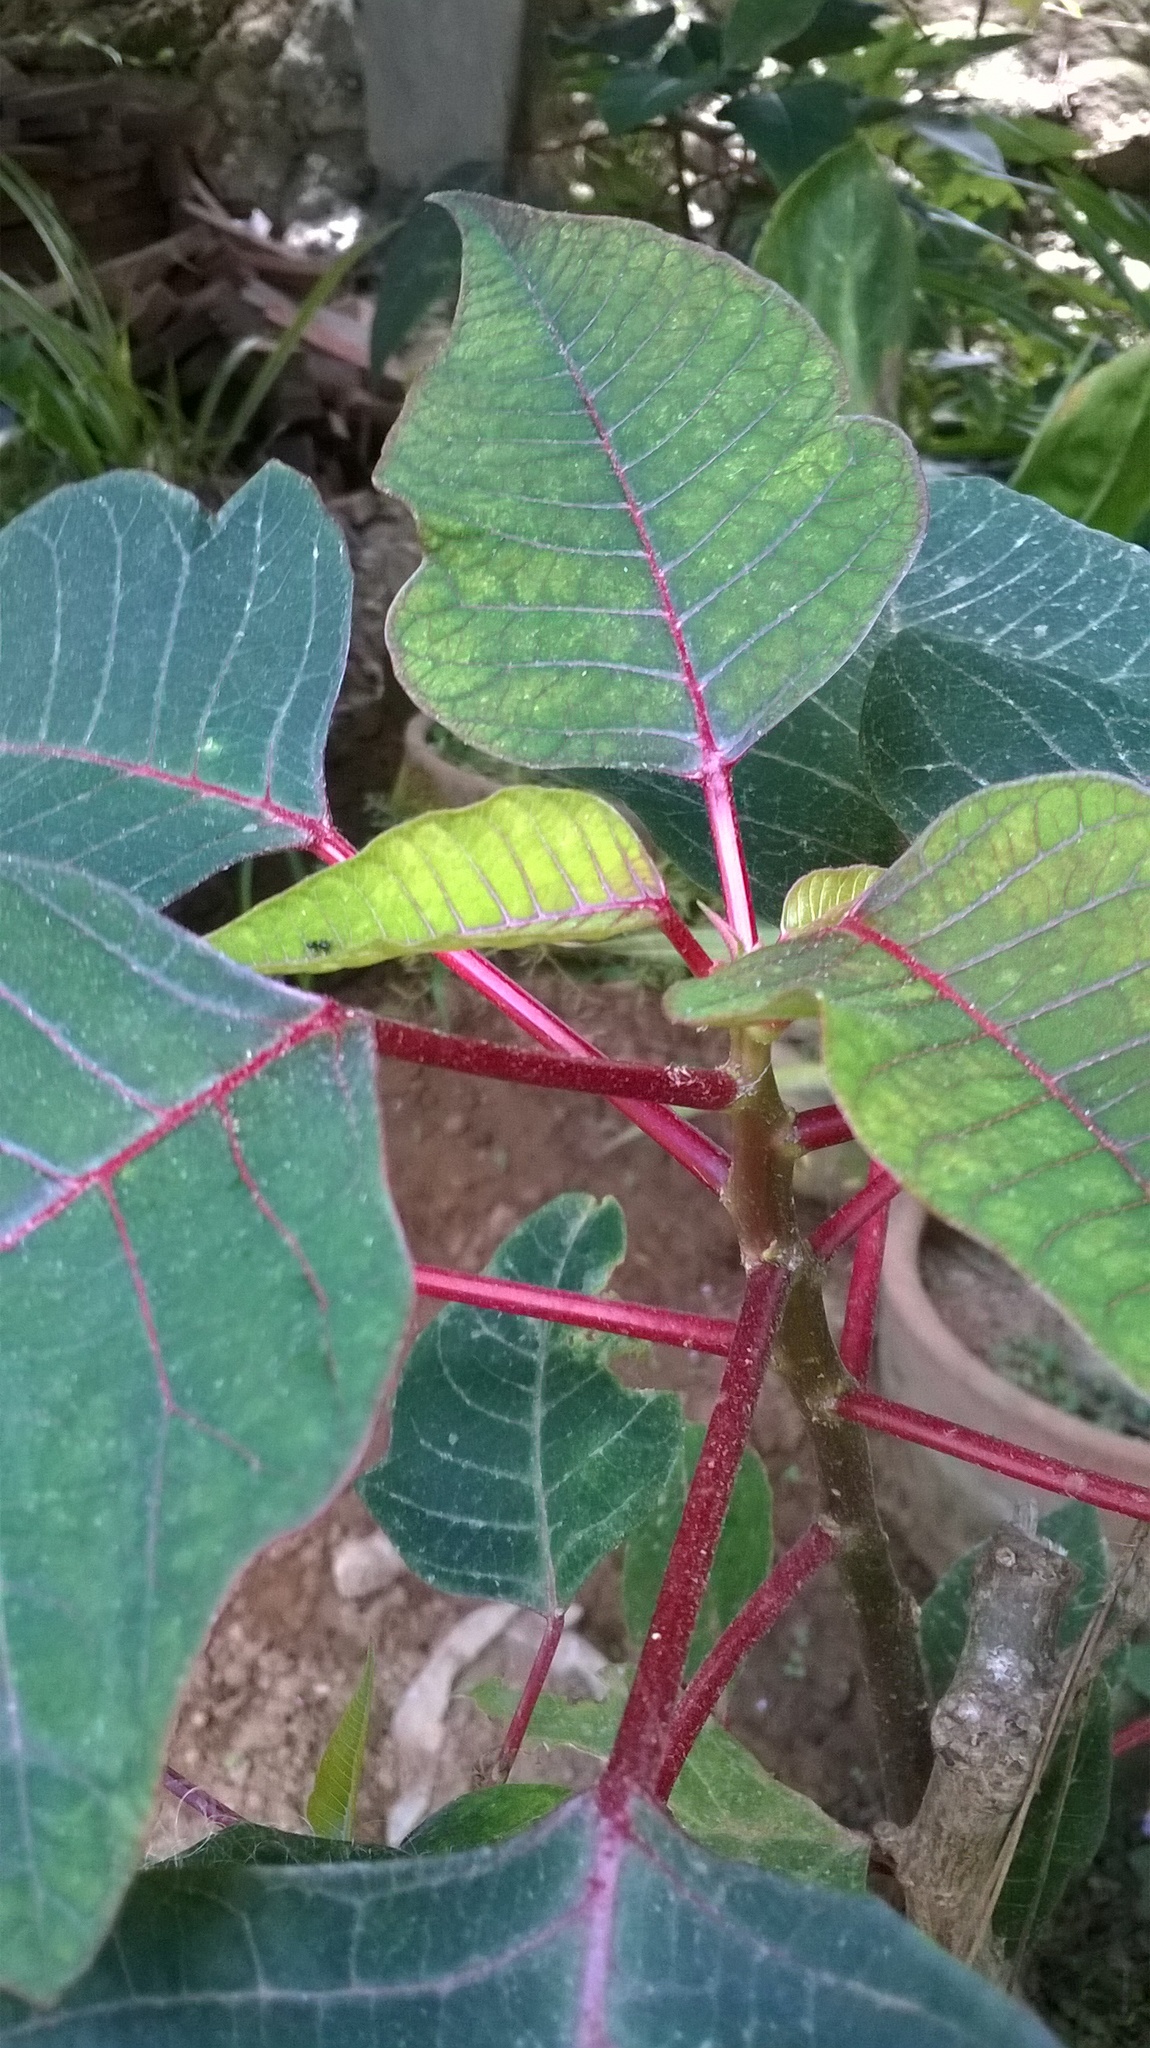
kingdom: Plantae
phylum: Tracheophyta
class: Magnoliopsida
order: Malpighiales
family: Euphorbiaceae
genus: Euphorbia
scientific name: Euphorbia pulcherrima
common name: Christmas-flower
